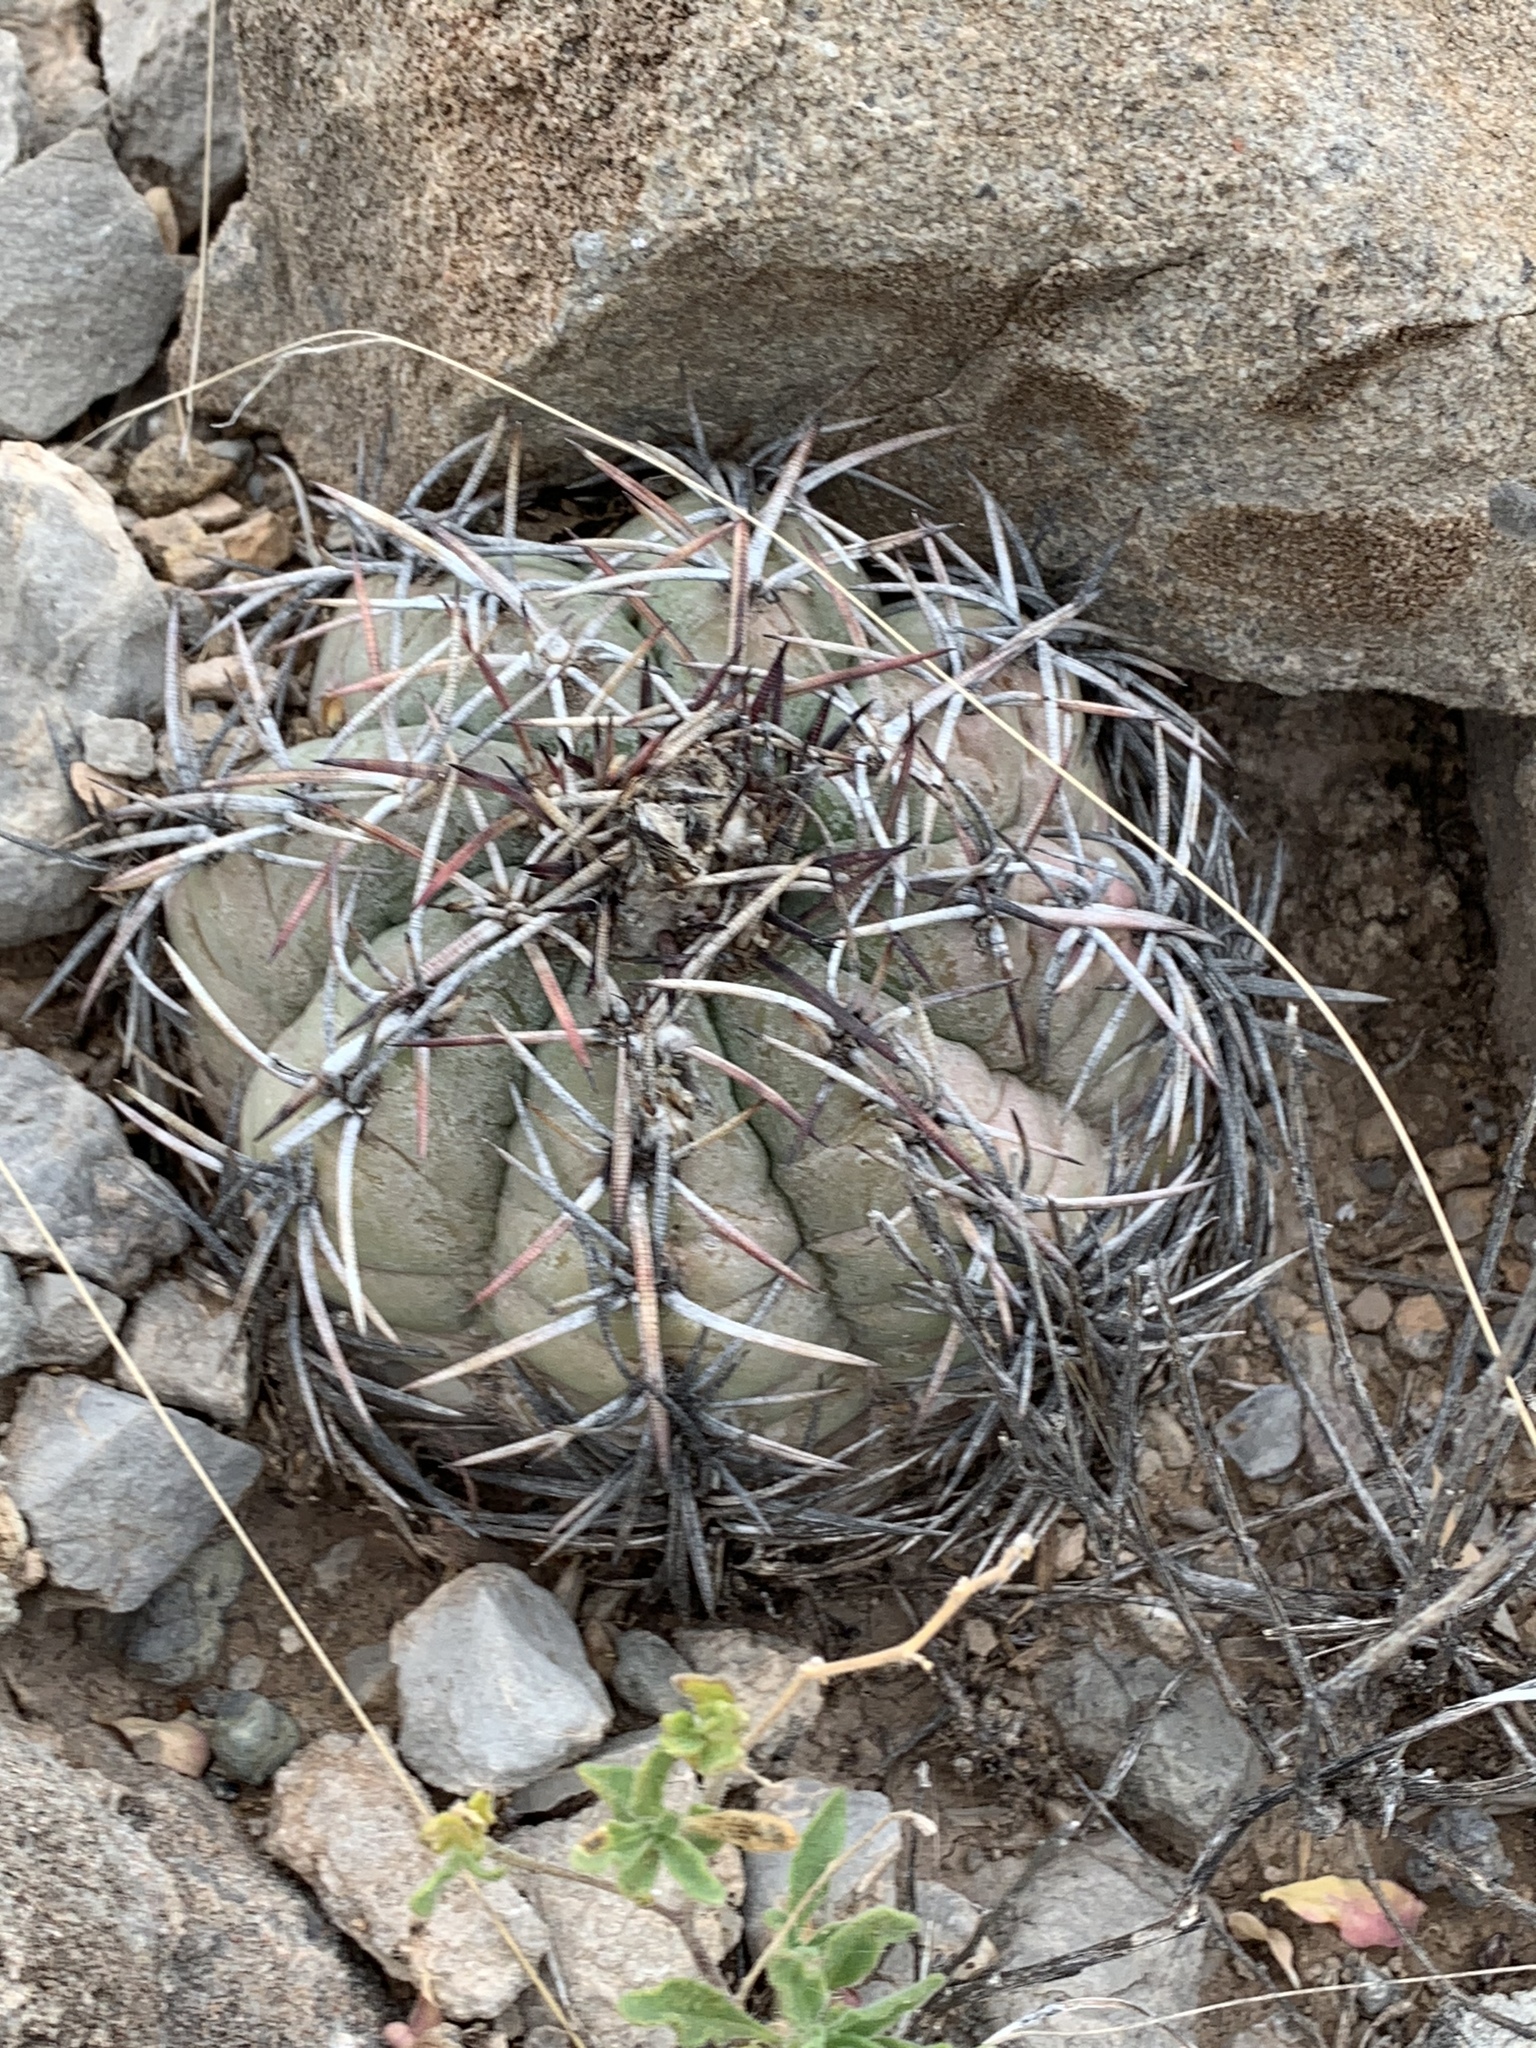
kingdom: Plantae
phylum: Tracheophyta
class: Magnoliopsida
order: Caryophyllales
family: Cactaceae
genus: Echinocactus
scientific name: Echinocactus horizonthalonius
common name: Devilshead
